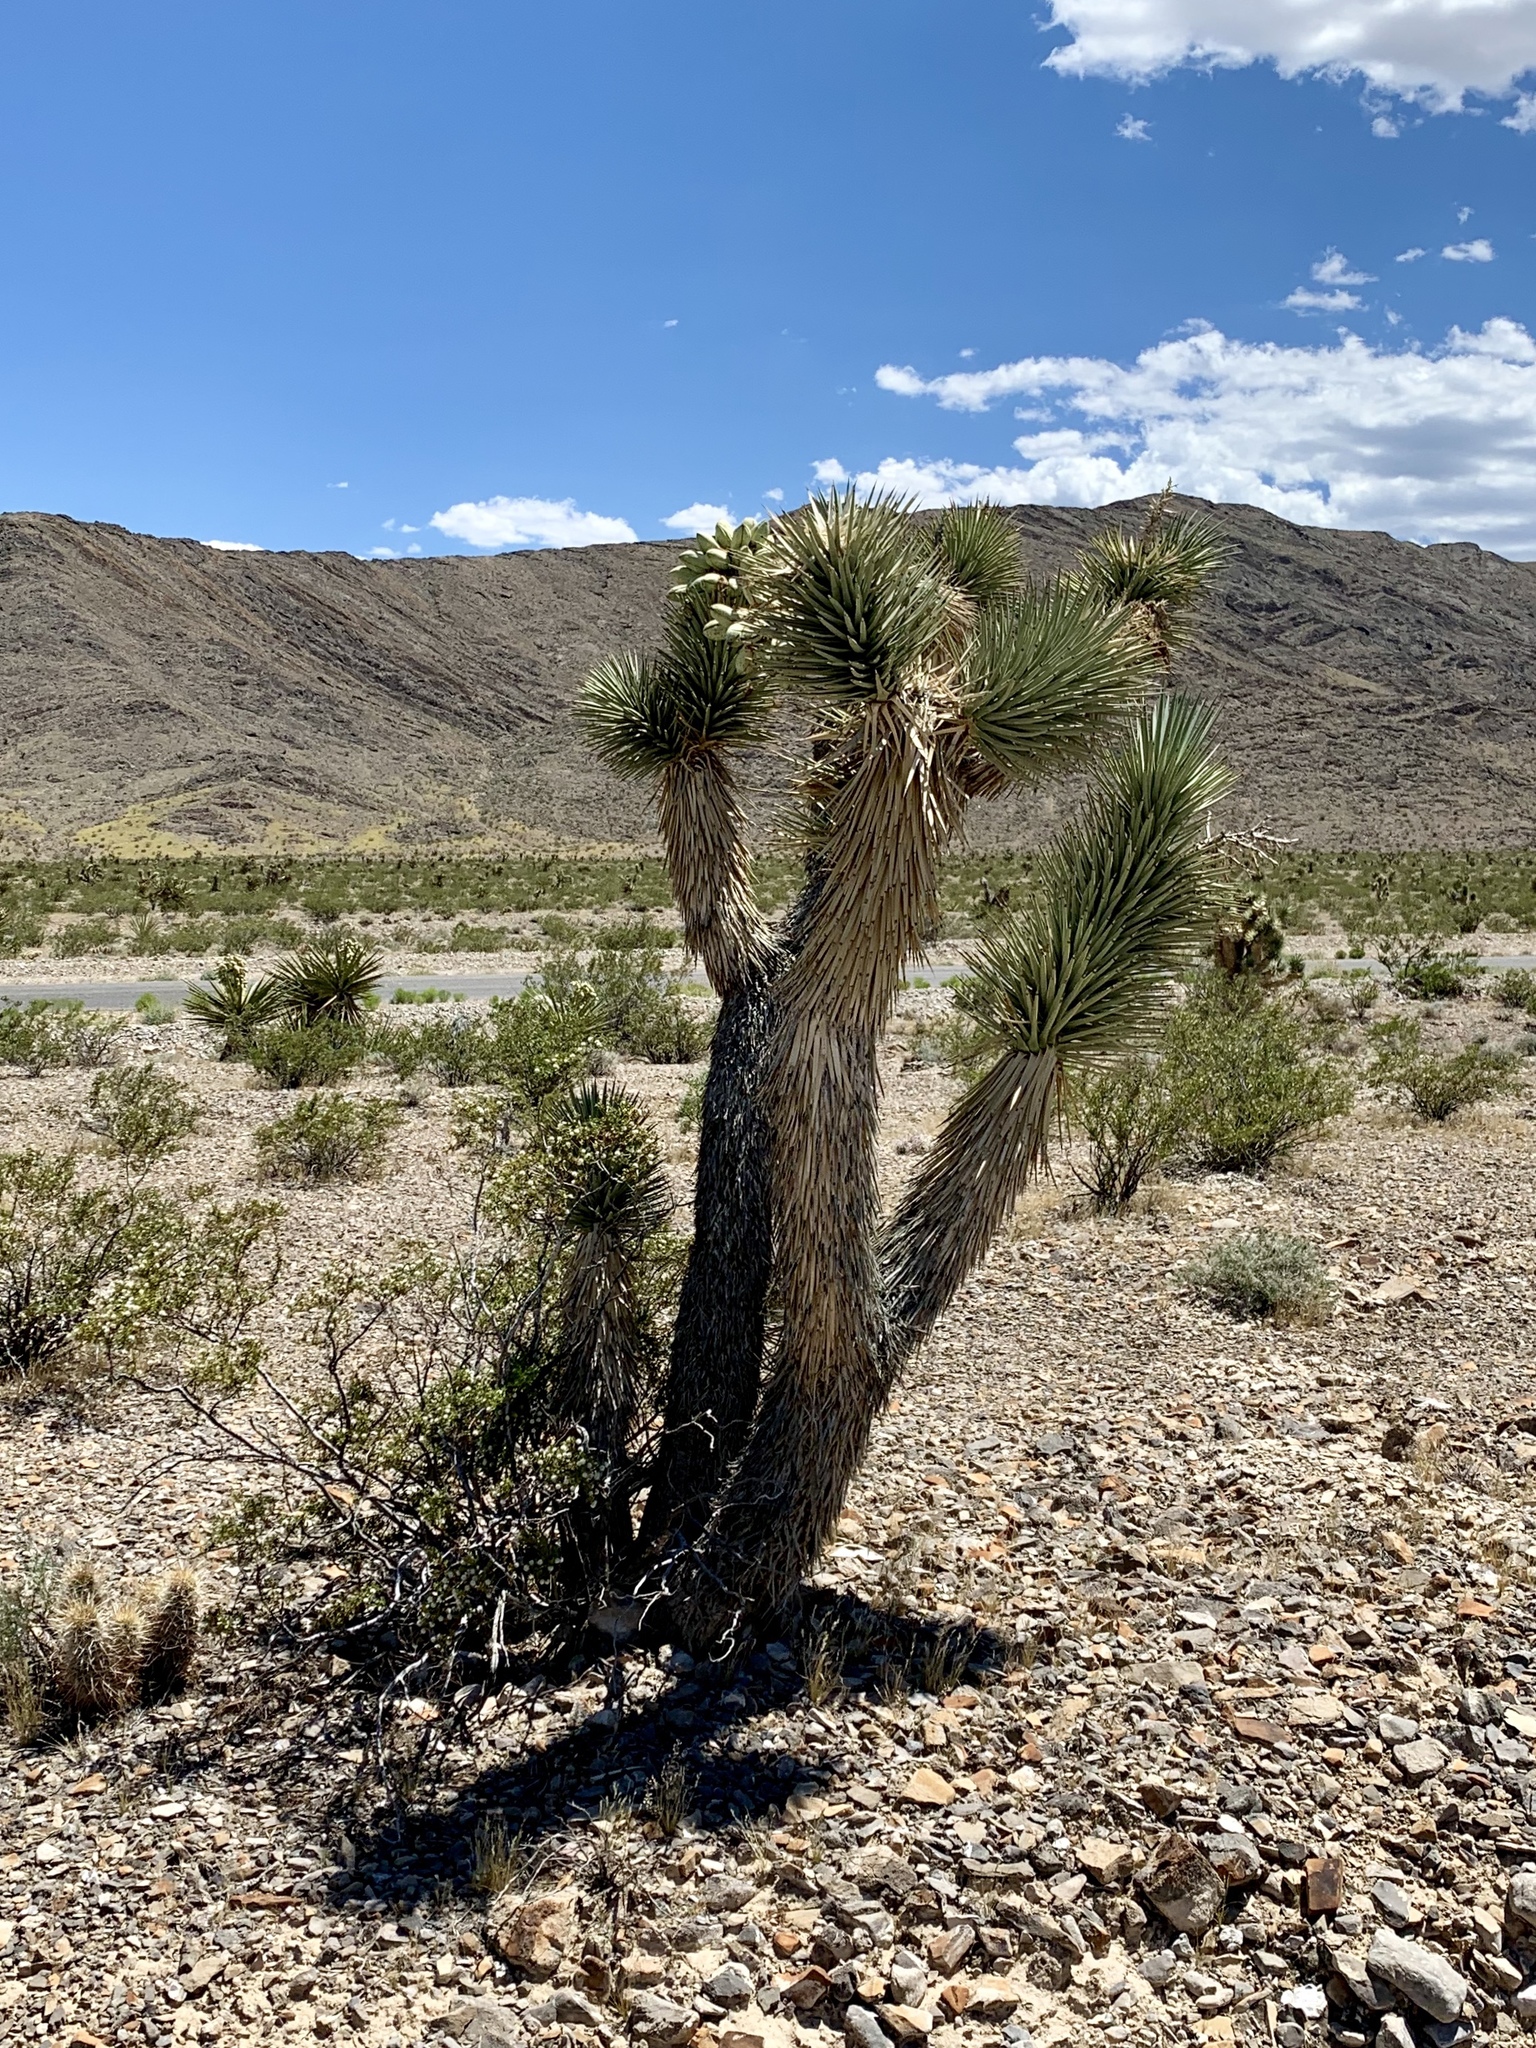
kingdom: Plantae
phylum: Tracheophyta
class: Liliopsida
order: Asparagales
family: Asparagaceae
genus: Yucca
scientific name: Yucca brevifolia
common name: Joshua tree
